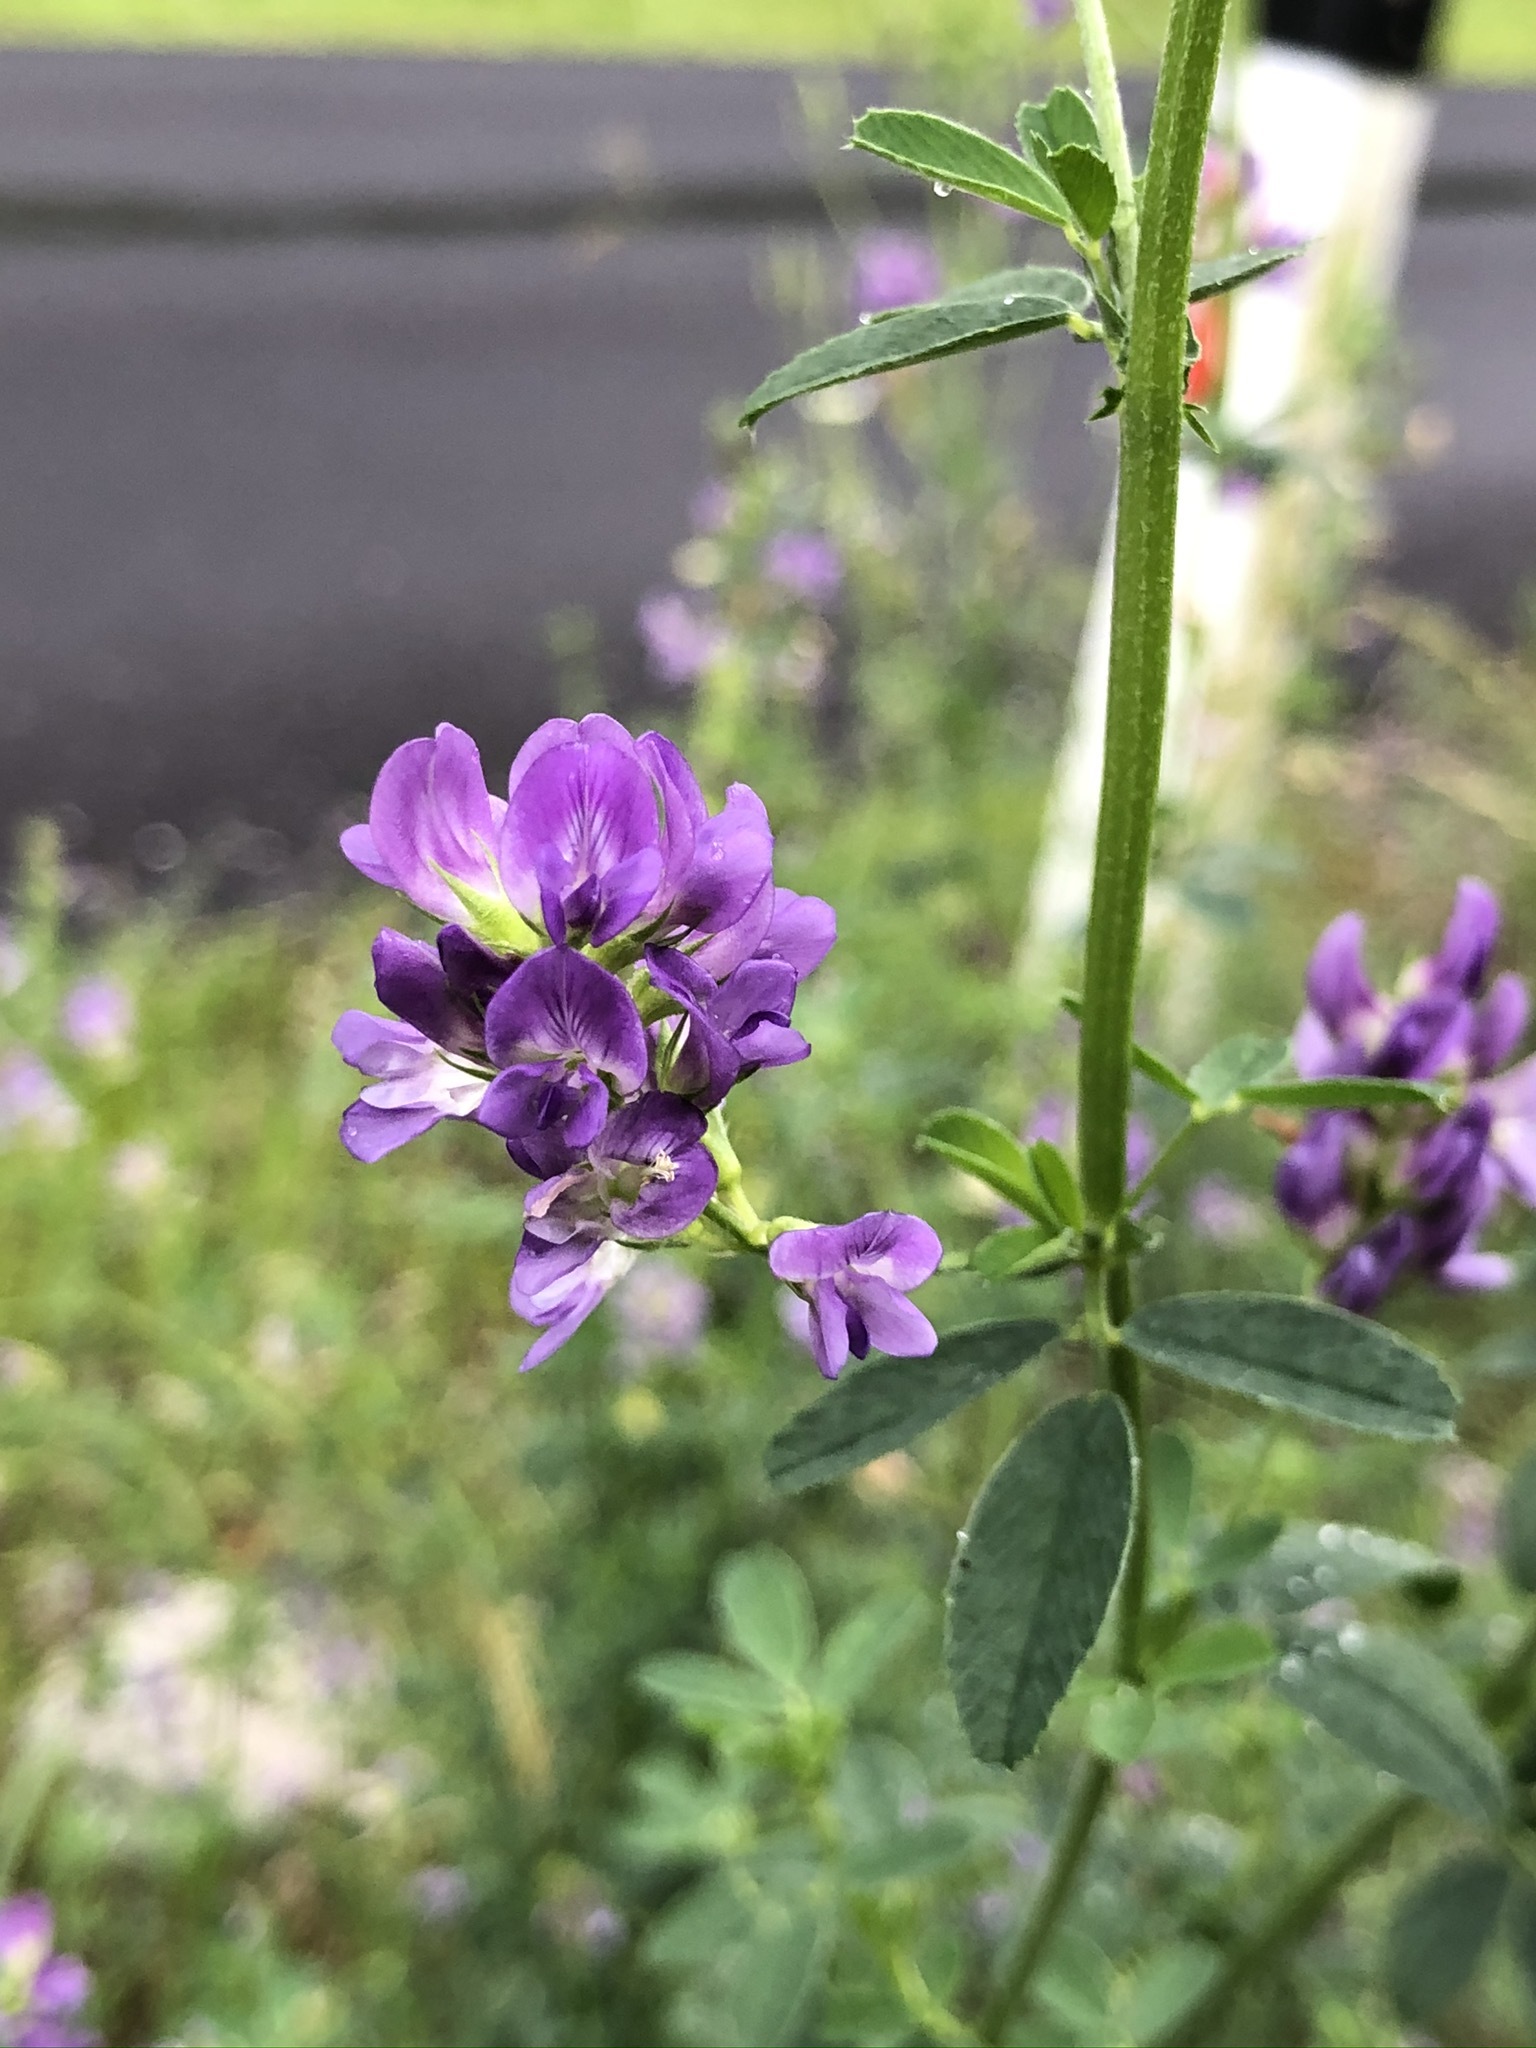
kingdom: Plantae
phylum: Tracheophyta
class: Magnoliopsida
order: Fabales
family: Fabaceae
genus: Medicago
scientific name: Medicago sativa
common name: Alfalfa
